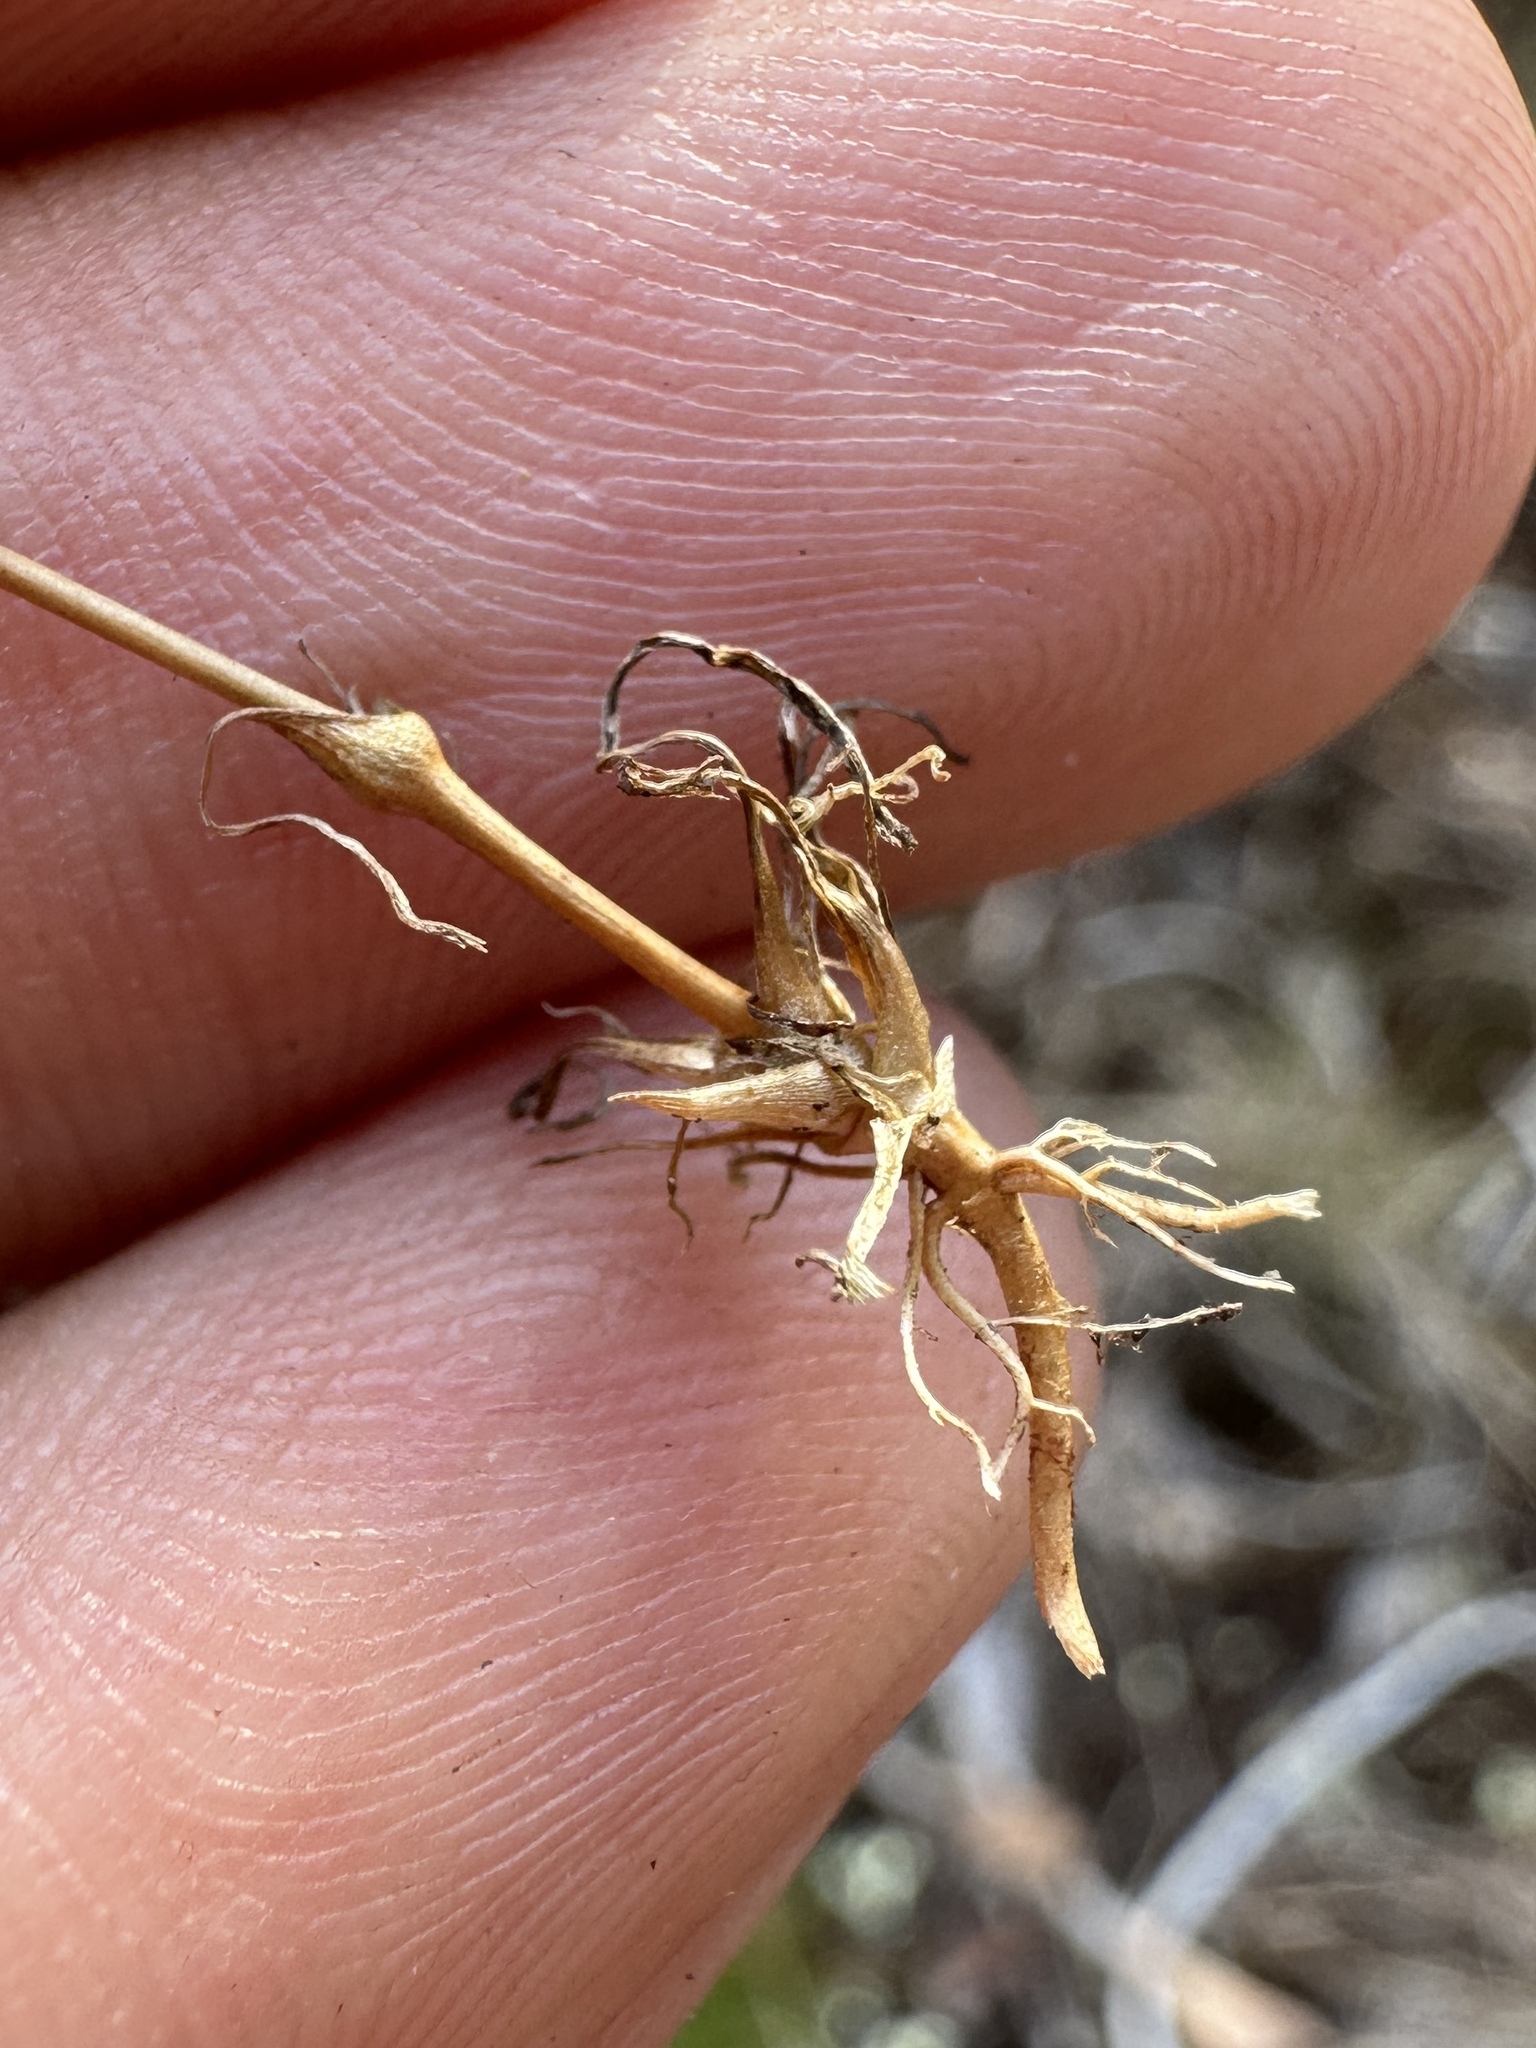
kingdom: Plantae
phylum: Tracheophyta
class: Magnoliopsida
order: Caryophyllales
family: Caryophyllaceae
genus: Geocarpon
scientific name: Geocarpon glabrum
